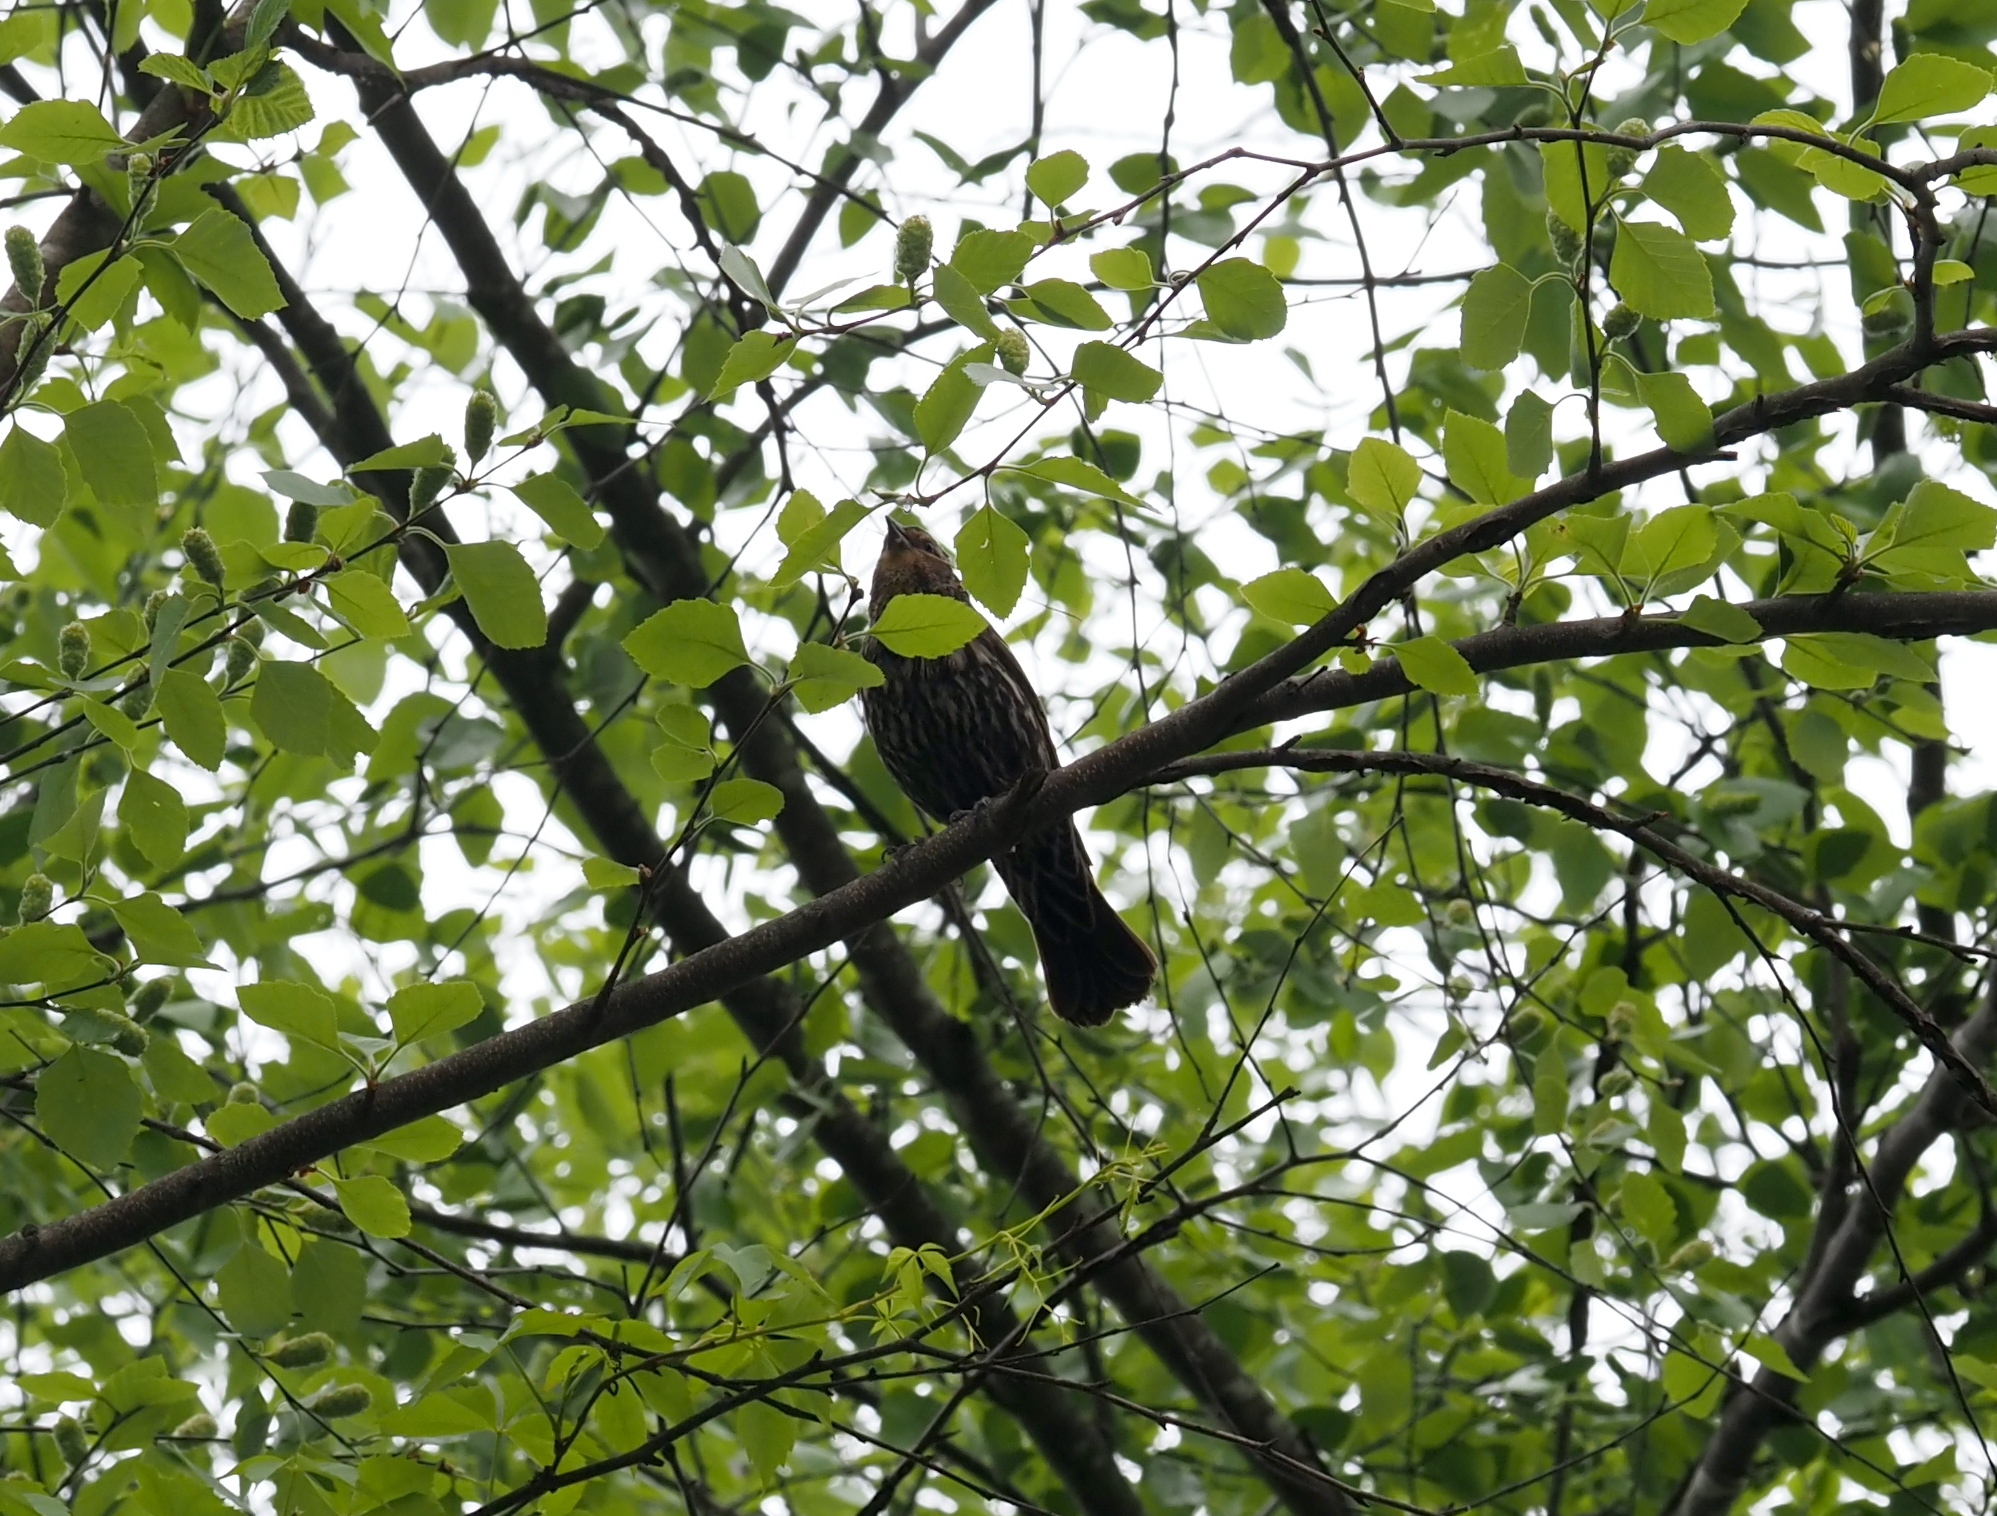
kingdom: Animalia
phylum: Chordata
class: Aves
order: Passeriformes
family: Icteridae
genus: Agelaius
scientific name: Agelaius phoeniceus
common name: Red-winged blackbird
